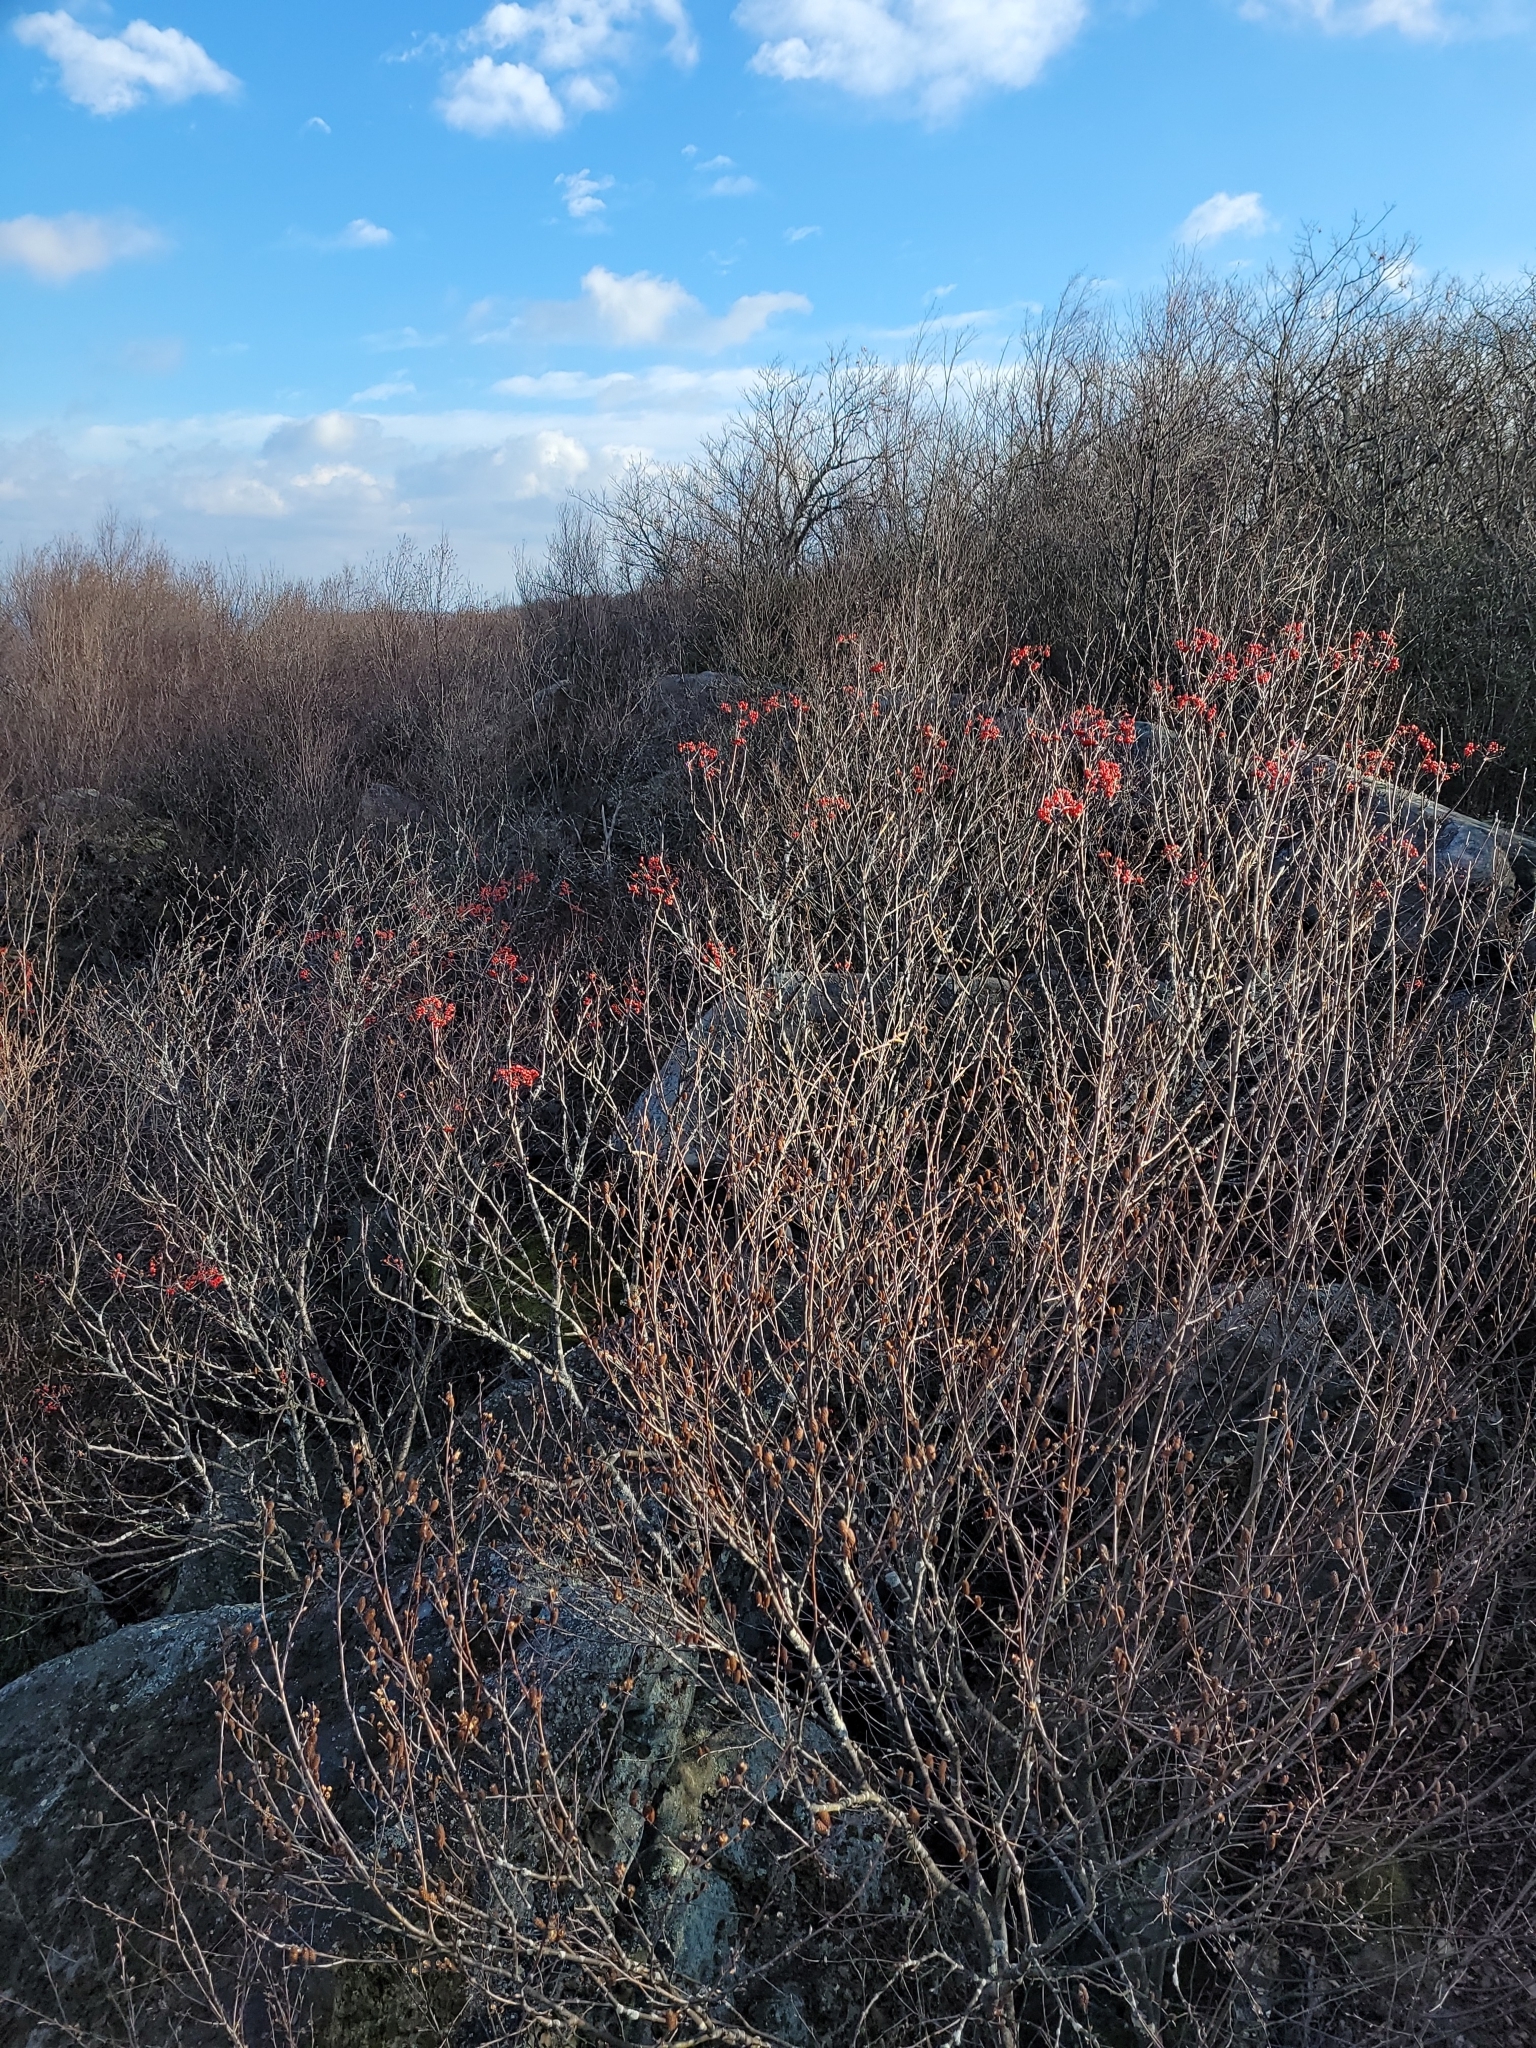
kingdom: Plantae
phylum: Tracheophyta
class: Magnoliopsida
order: Rosales
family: Rosaceae
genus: Sorbus
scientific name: Sorbus americana
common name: American mountain-ash
